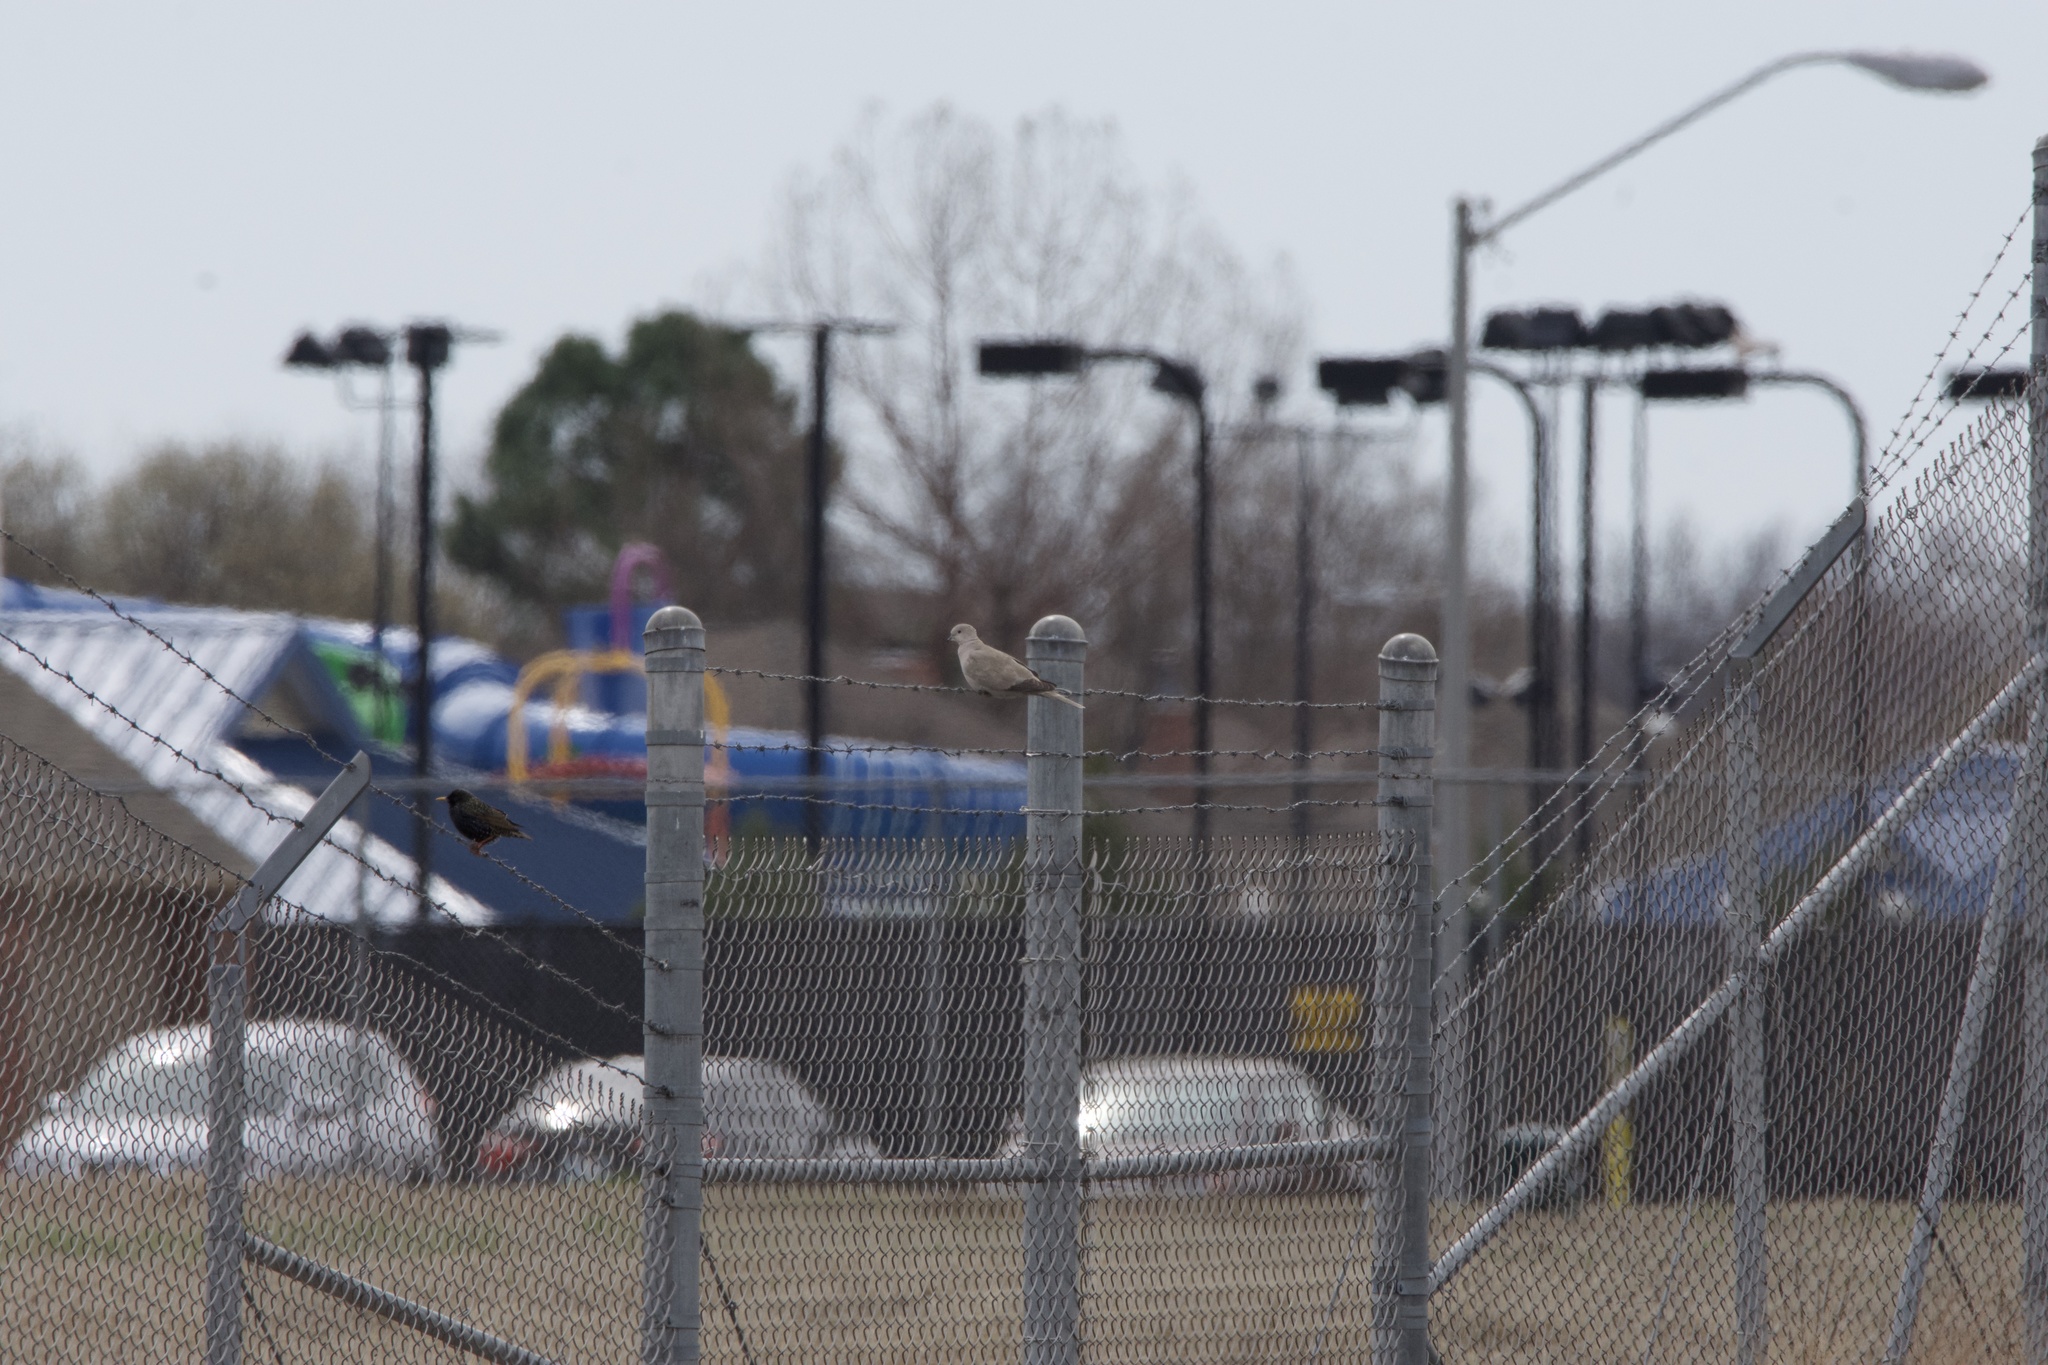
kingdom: Animalia
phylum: Chordata
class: Aves
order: Columbiformes
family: Columbidae
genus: Streptopelia
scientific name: Streptopelia decaocto
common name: Eurasian collared dove
